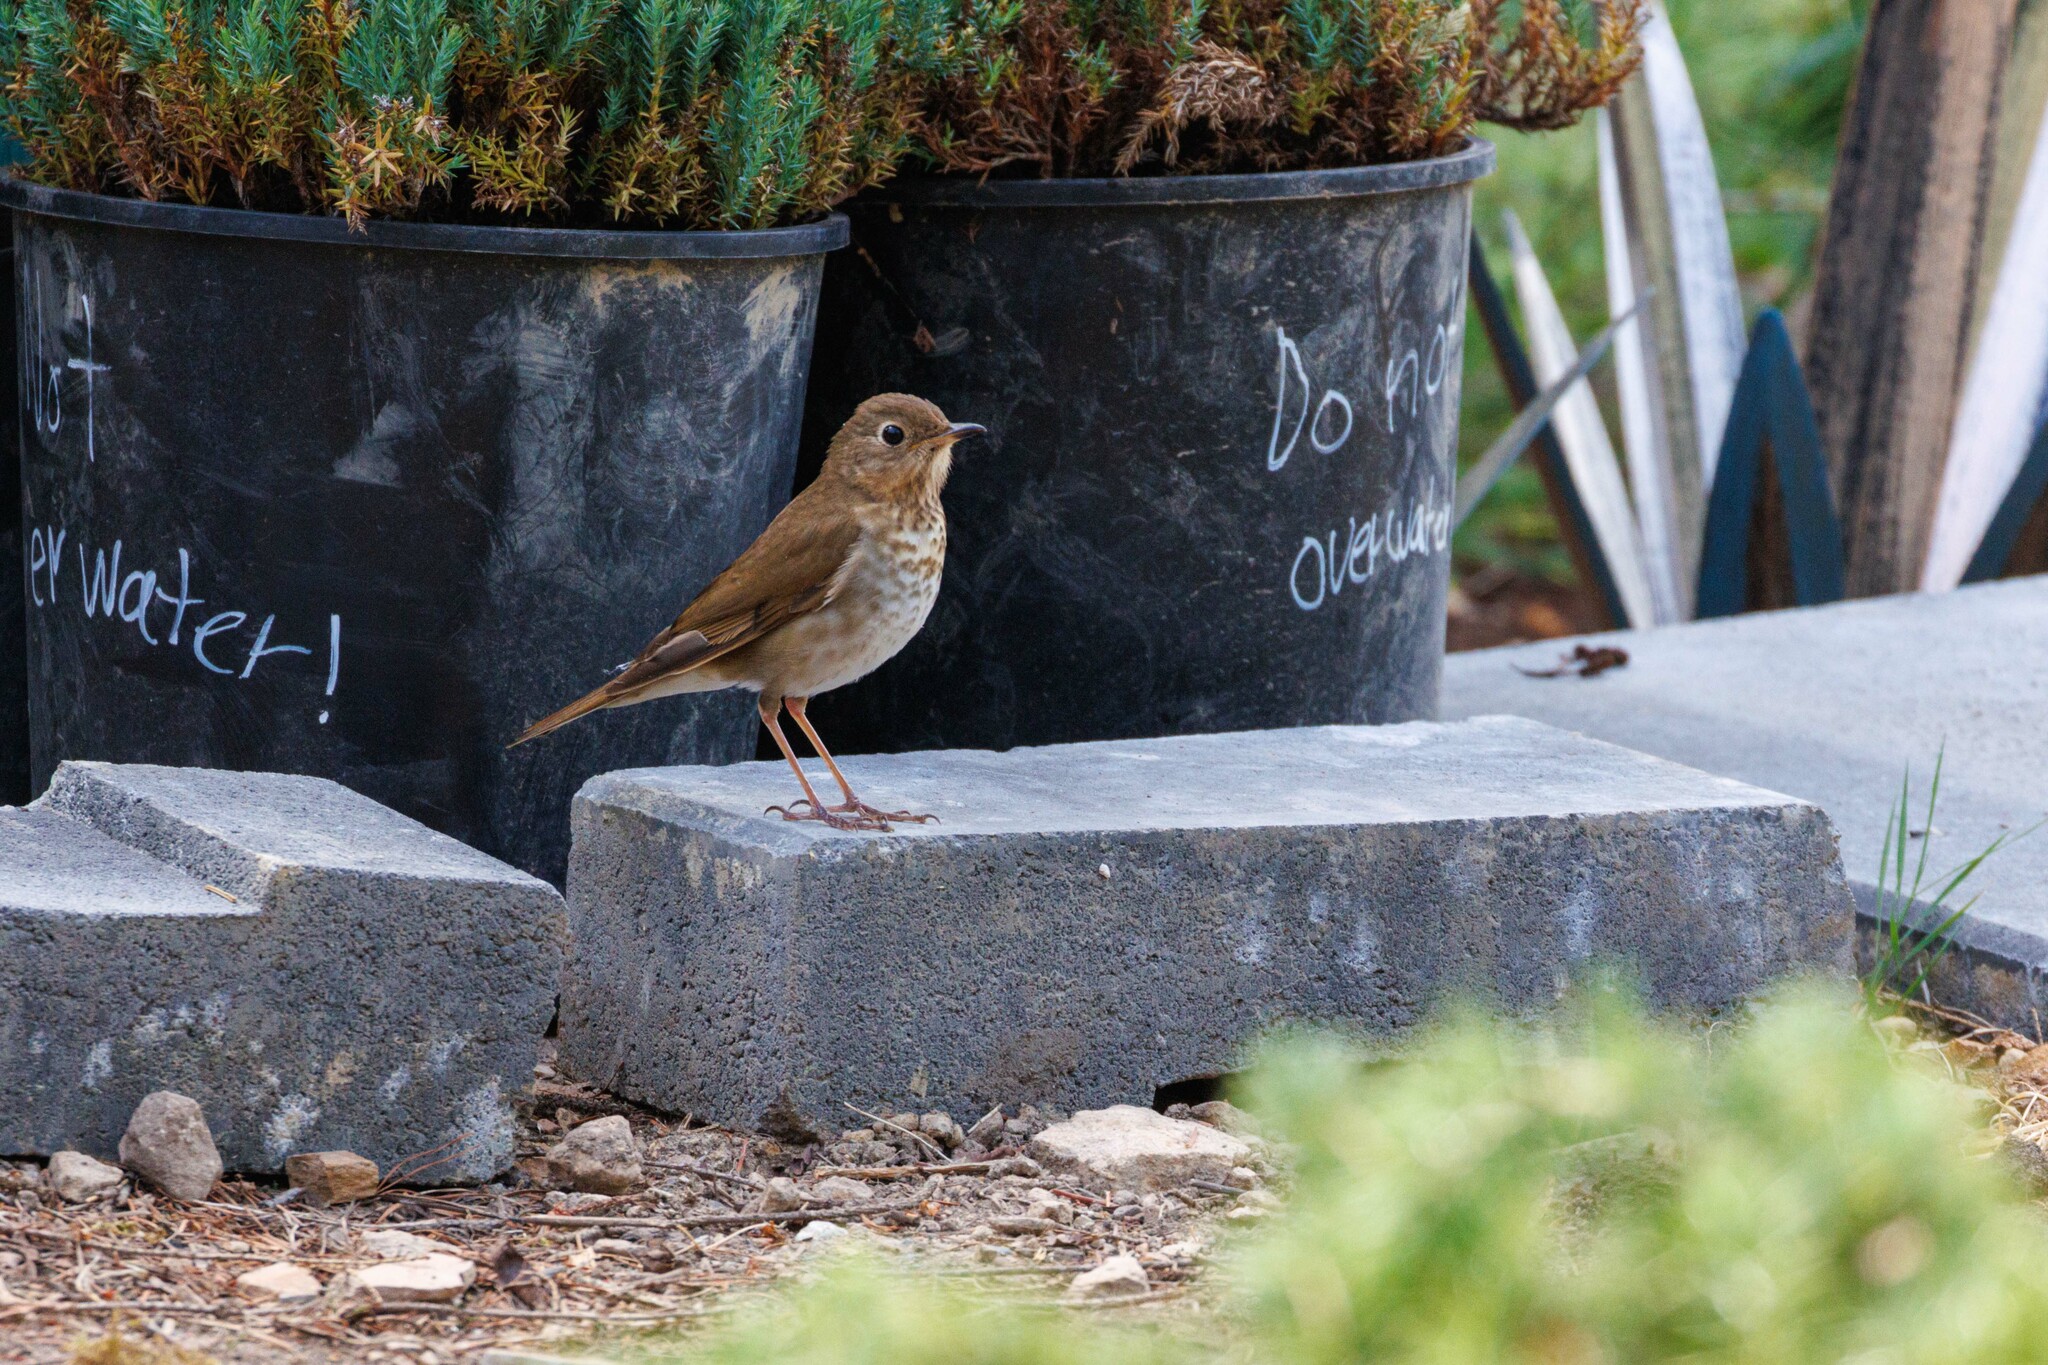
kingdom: Animalia
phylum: Chordata
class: Aves
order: Passeriformes
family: Turdidae
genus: Catharus
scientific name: Catharus ustulatus
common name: Swainson's thrush
